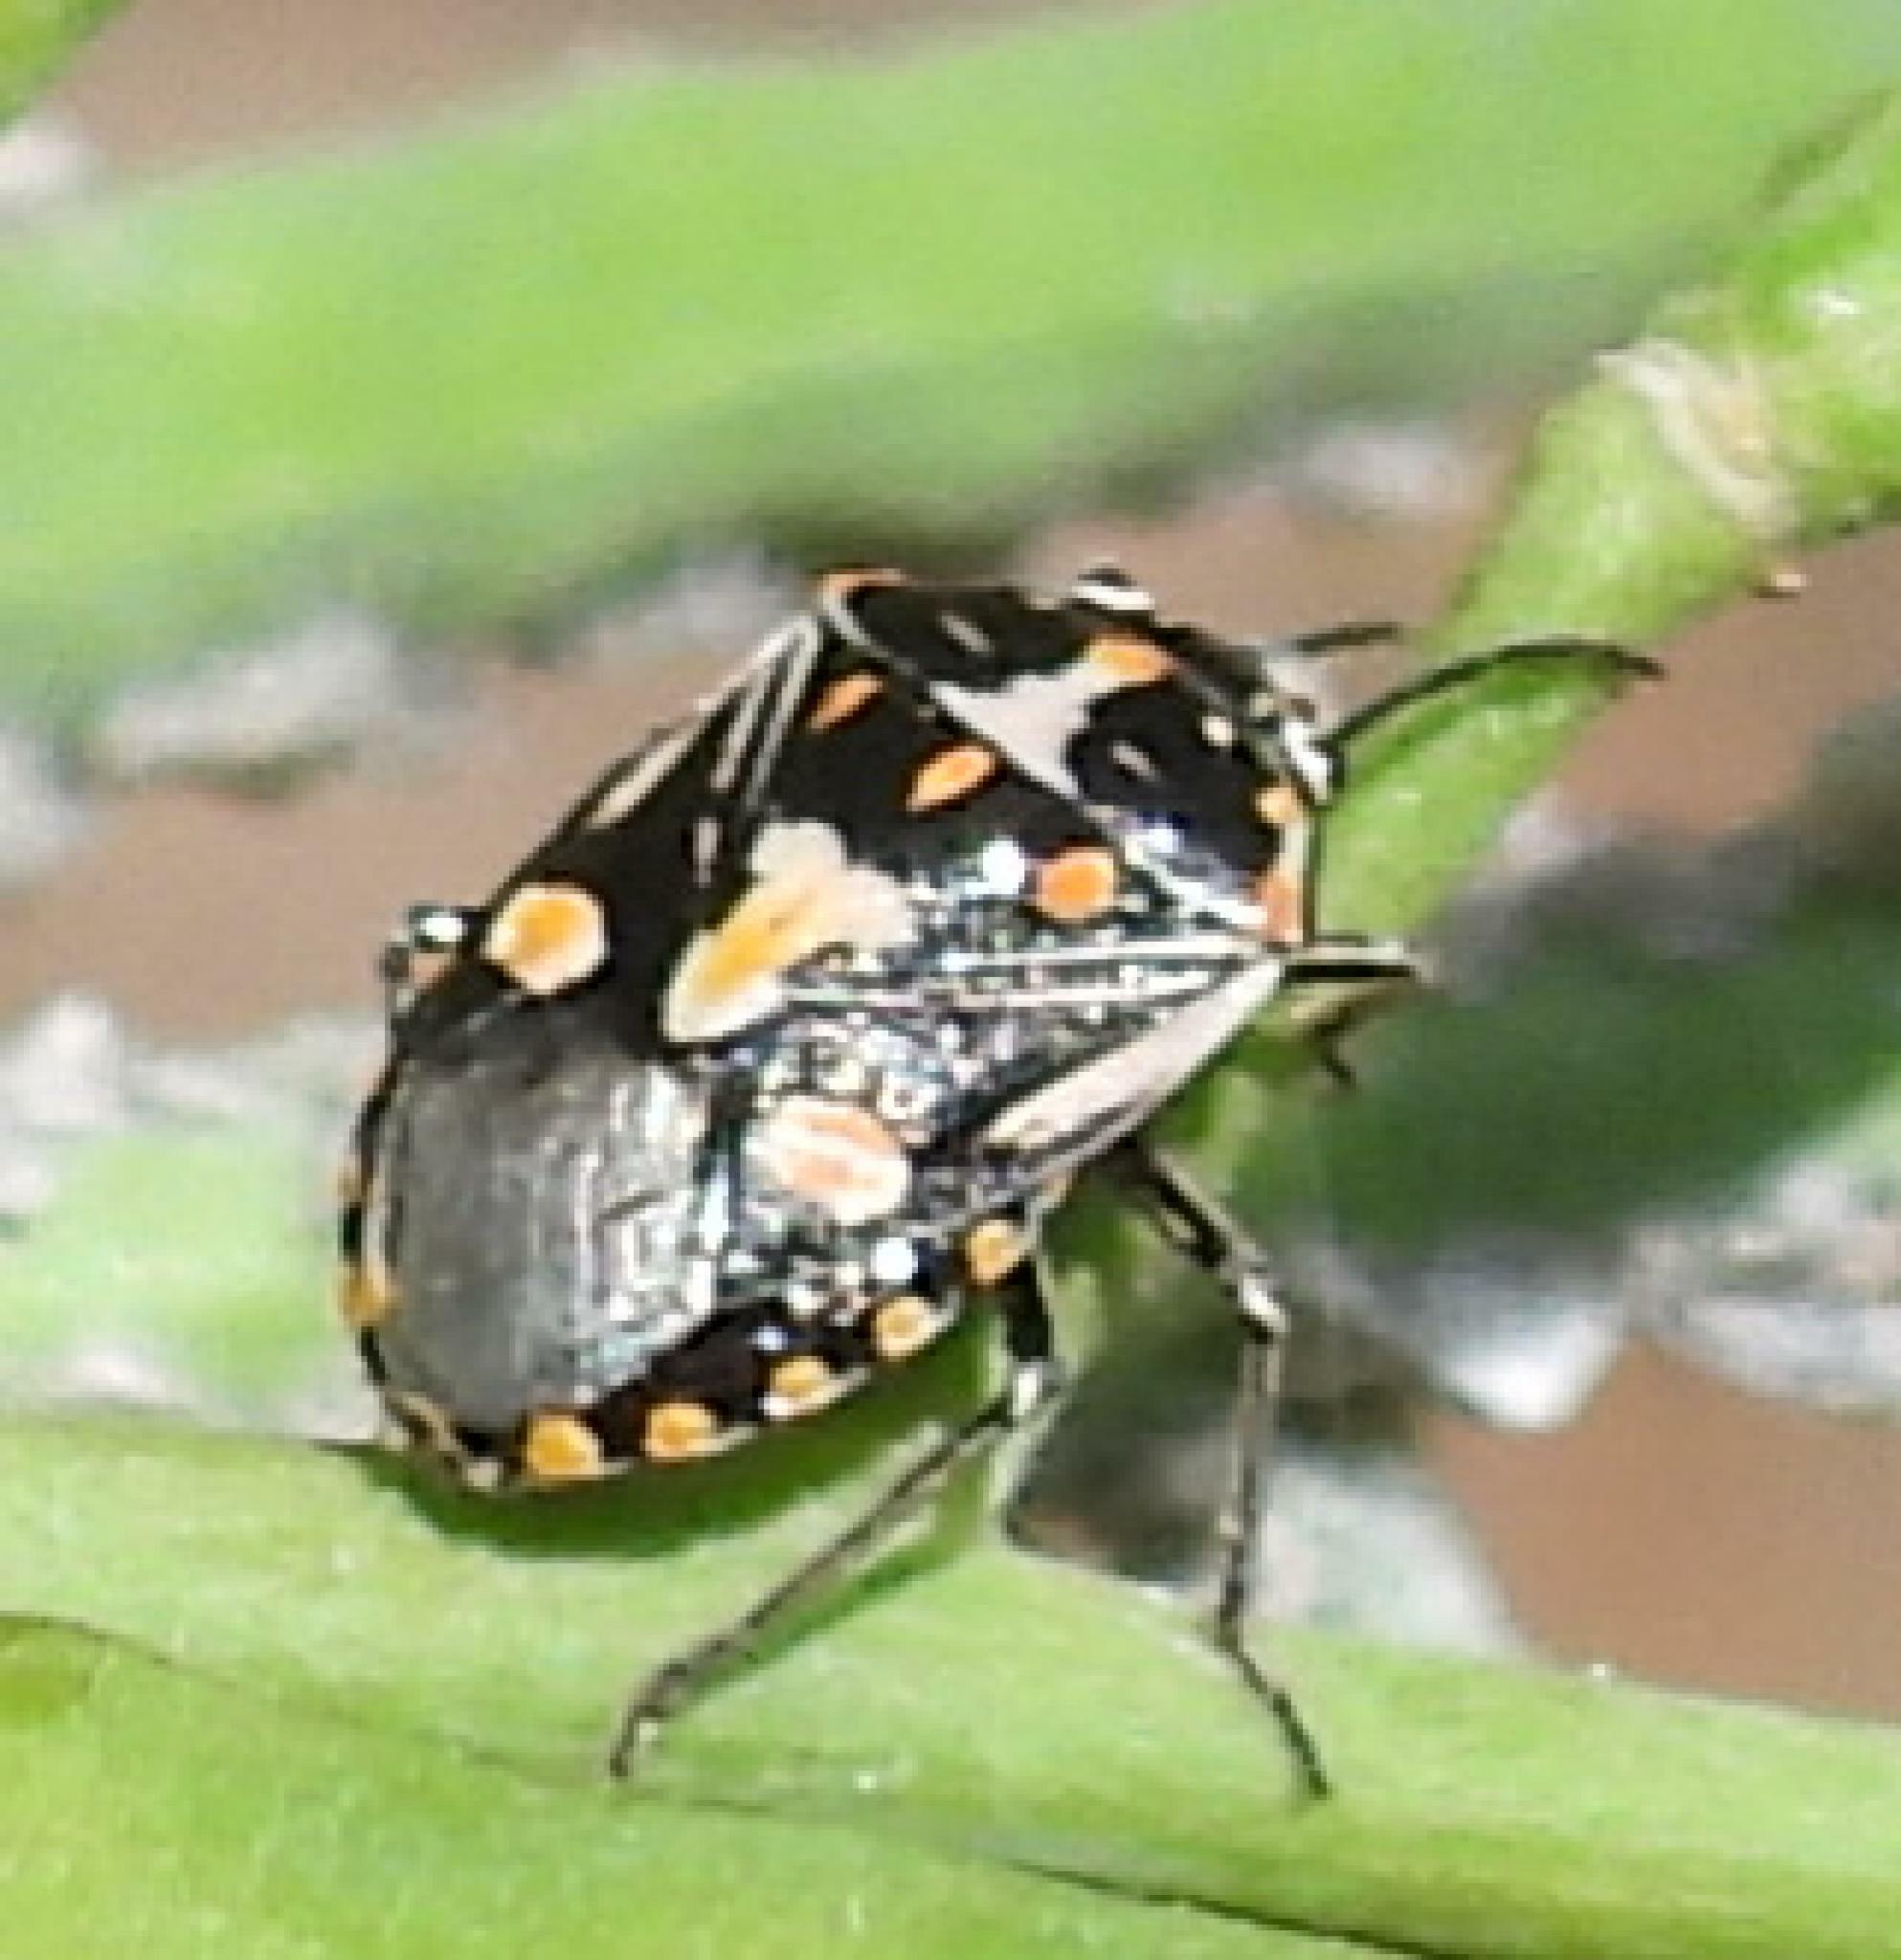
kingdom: Animalia
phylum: Arthropoda
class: Insecta
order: Hemiptera
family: Pentatomidae
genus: Bagrada
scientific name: Bagrada hilaris
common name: Bagrada bug
